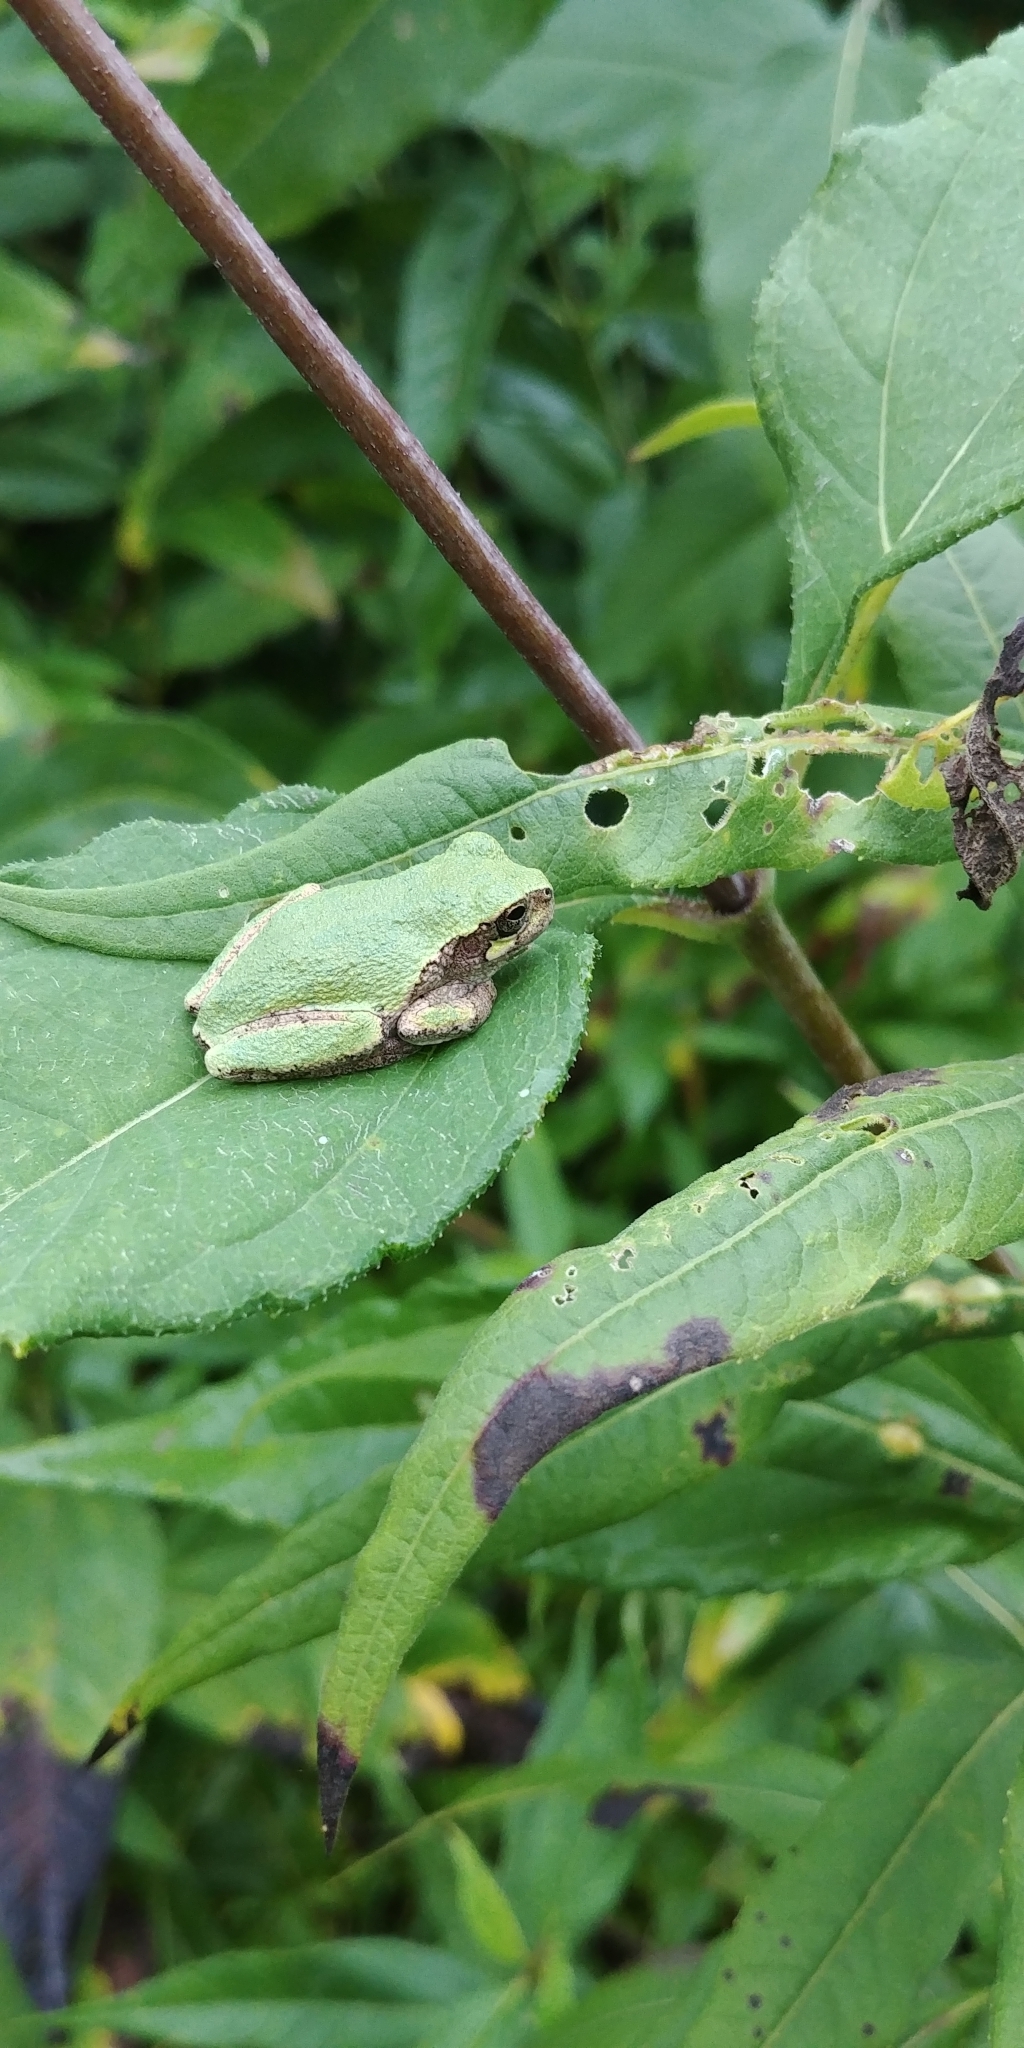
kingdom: Animalia
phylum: Chordata
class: Amphibia
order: Anura
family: Hylidae
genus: Hyla
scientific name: Hyla
